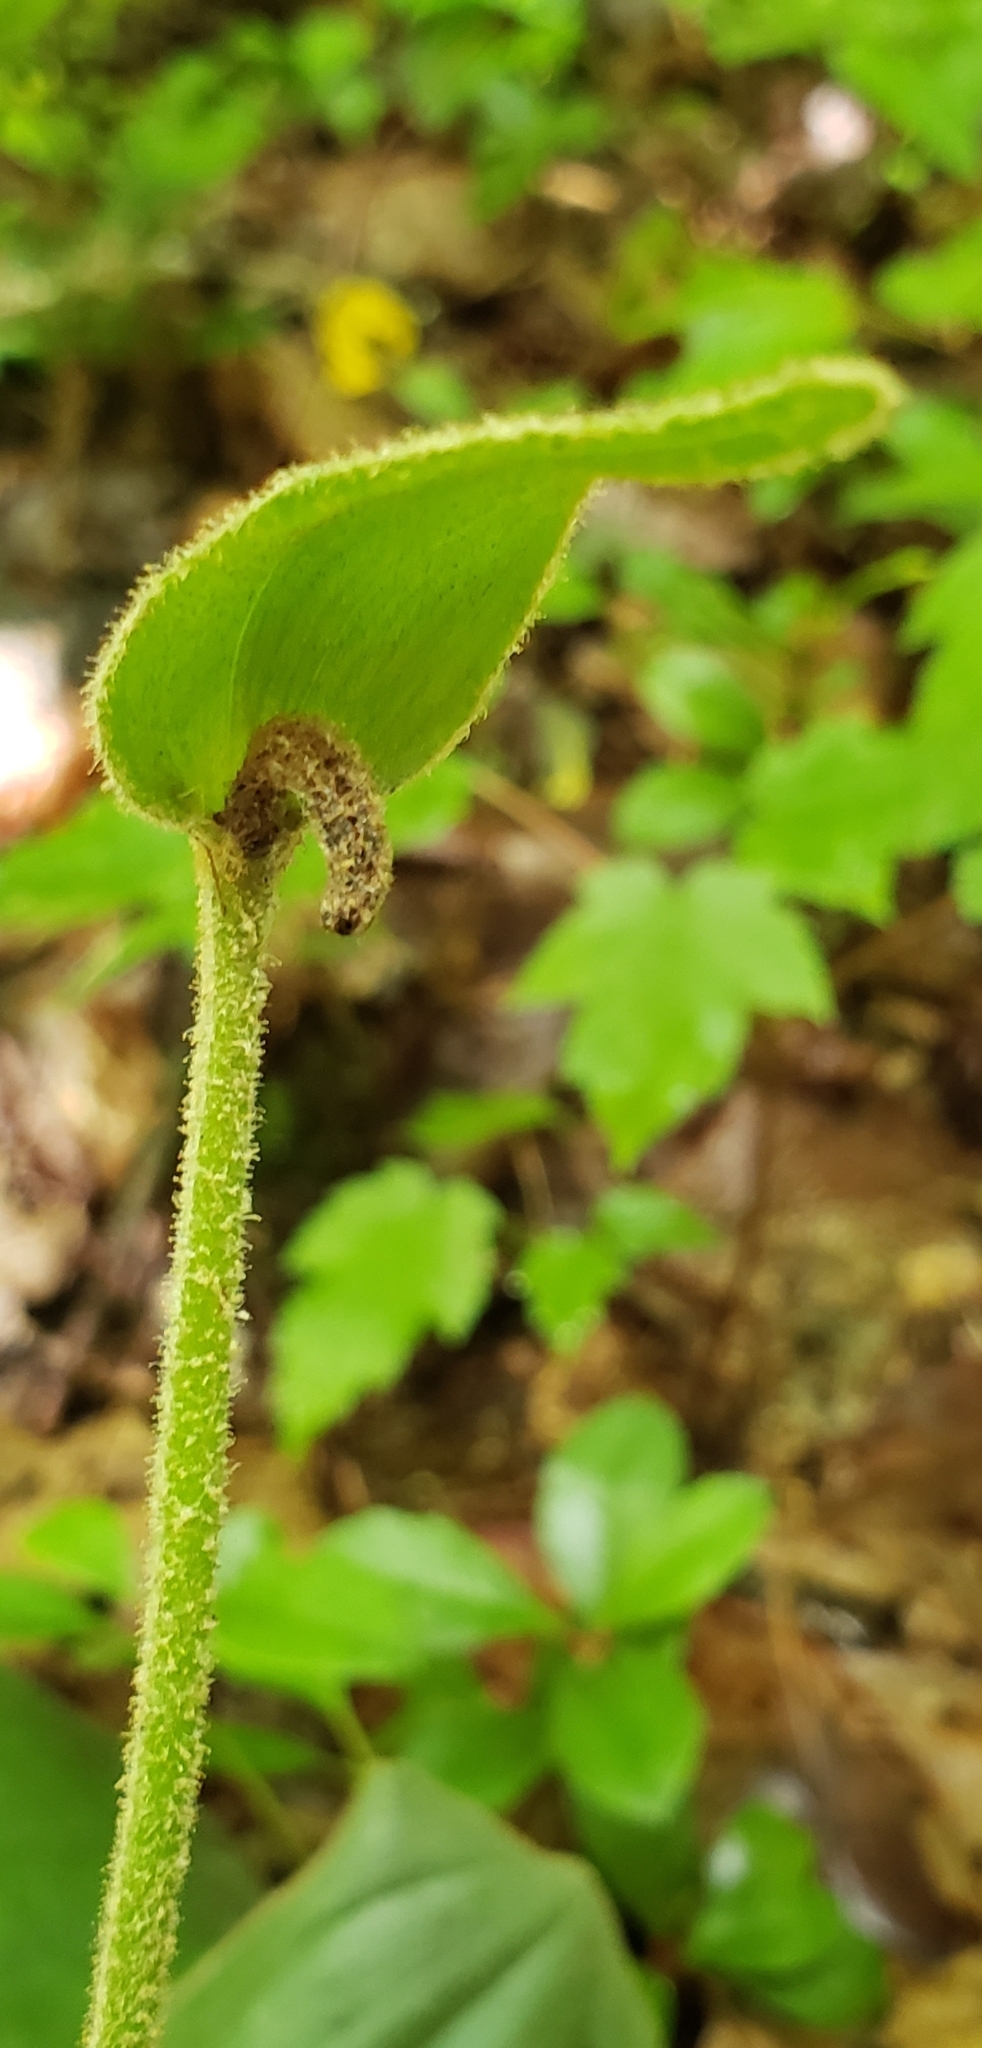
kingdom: Plantae
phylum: Tracheophyta
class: Liliopsida
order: Asparagales
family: Orchidaceae
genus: Cypripedium
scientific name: Cypripedium acaule
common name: Pink lady's-slipper
